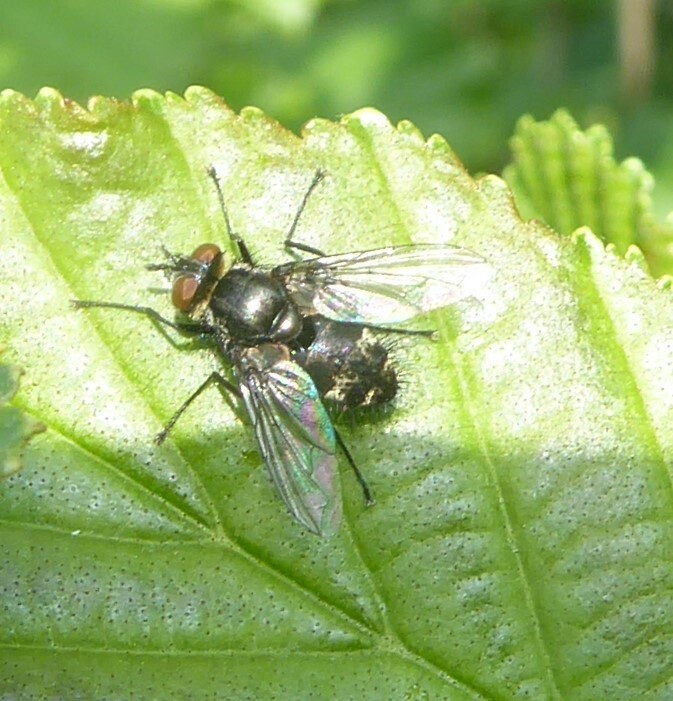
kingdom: Animalia
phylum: Arthropoda
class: Insecta
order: Diptera
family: Tachinidae
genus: Nemorilla
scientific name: Nemorilla floralis
